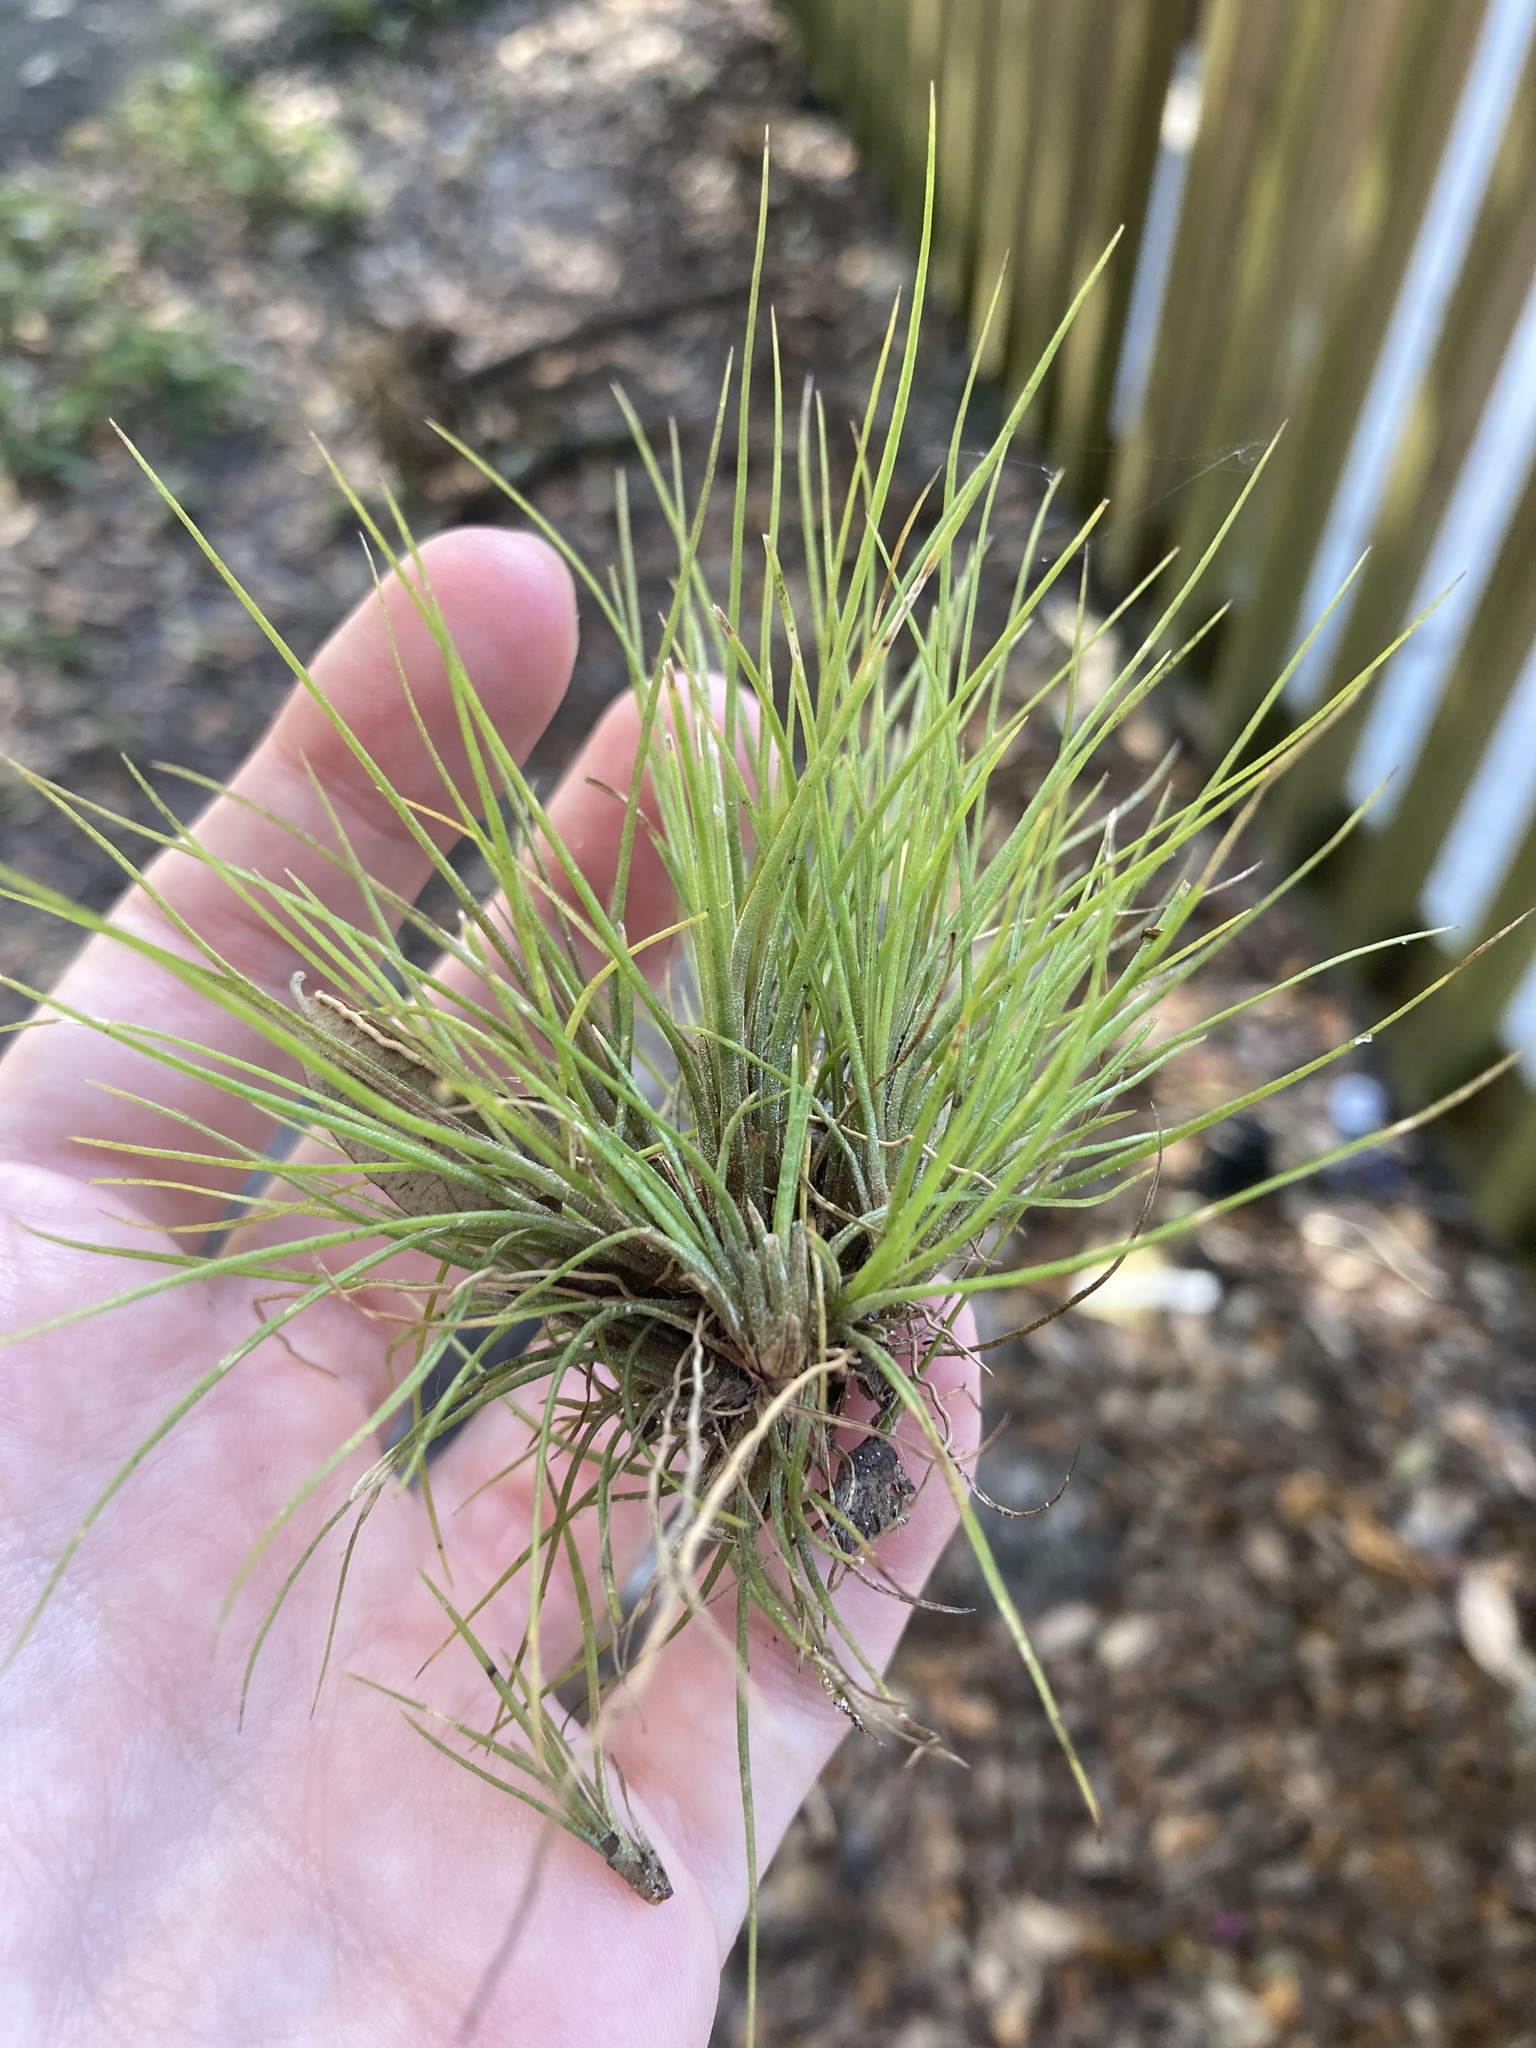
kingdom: Plantae
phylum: Tracheophyta
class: Liliopsida
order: Poales
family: Bromeliaceae
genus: Tillandsia
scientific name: Tillandsia setacea
